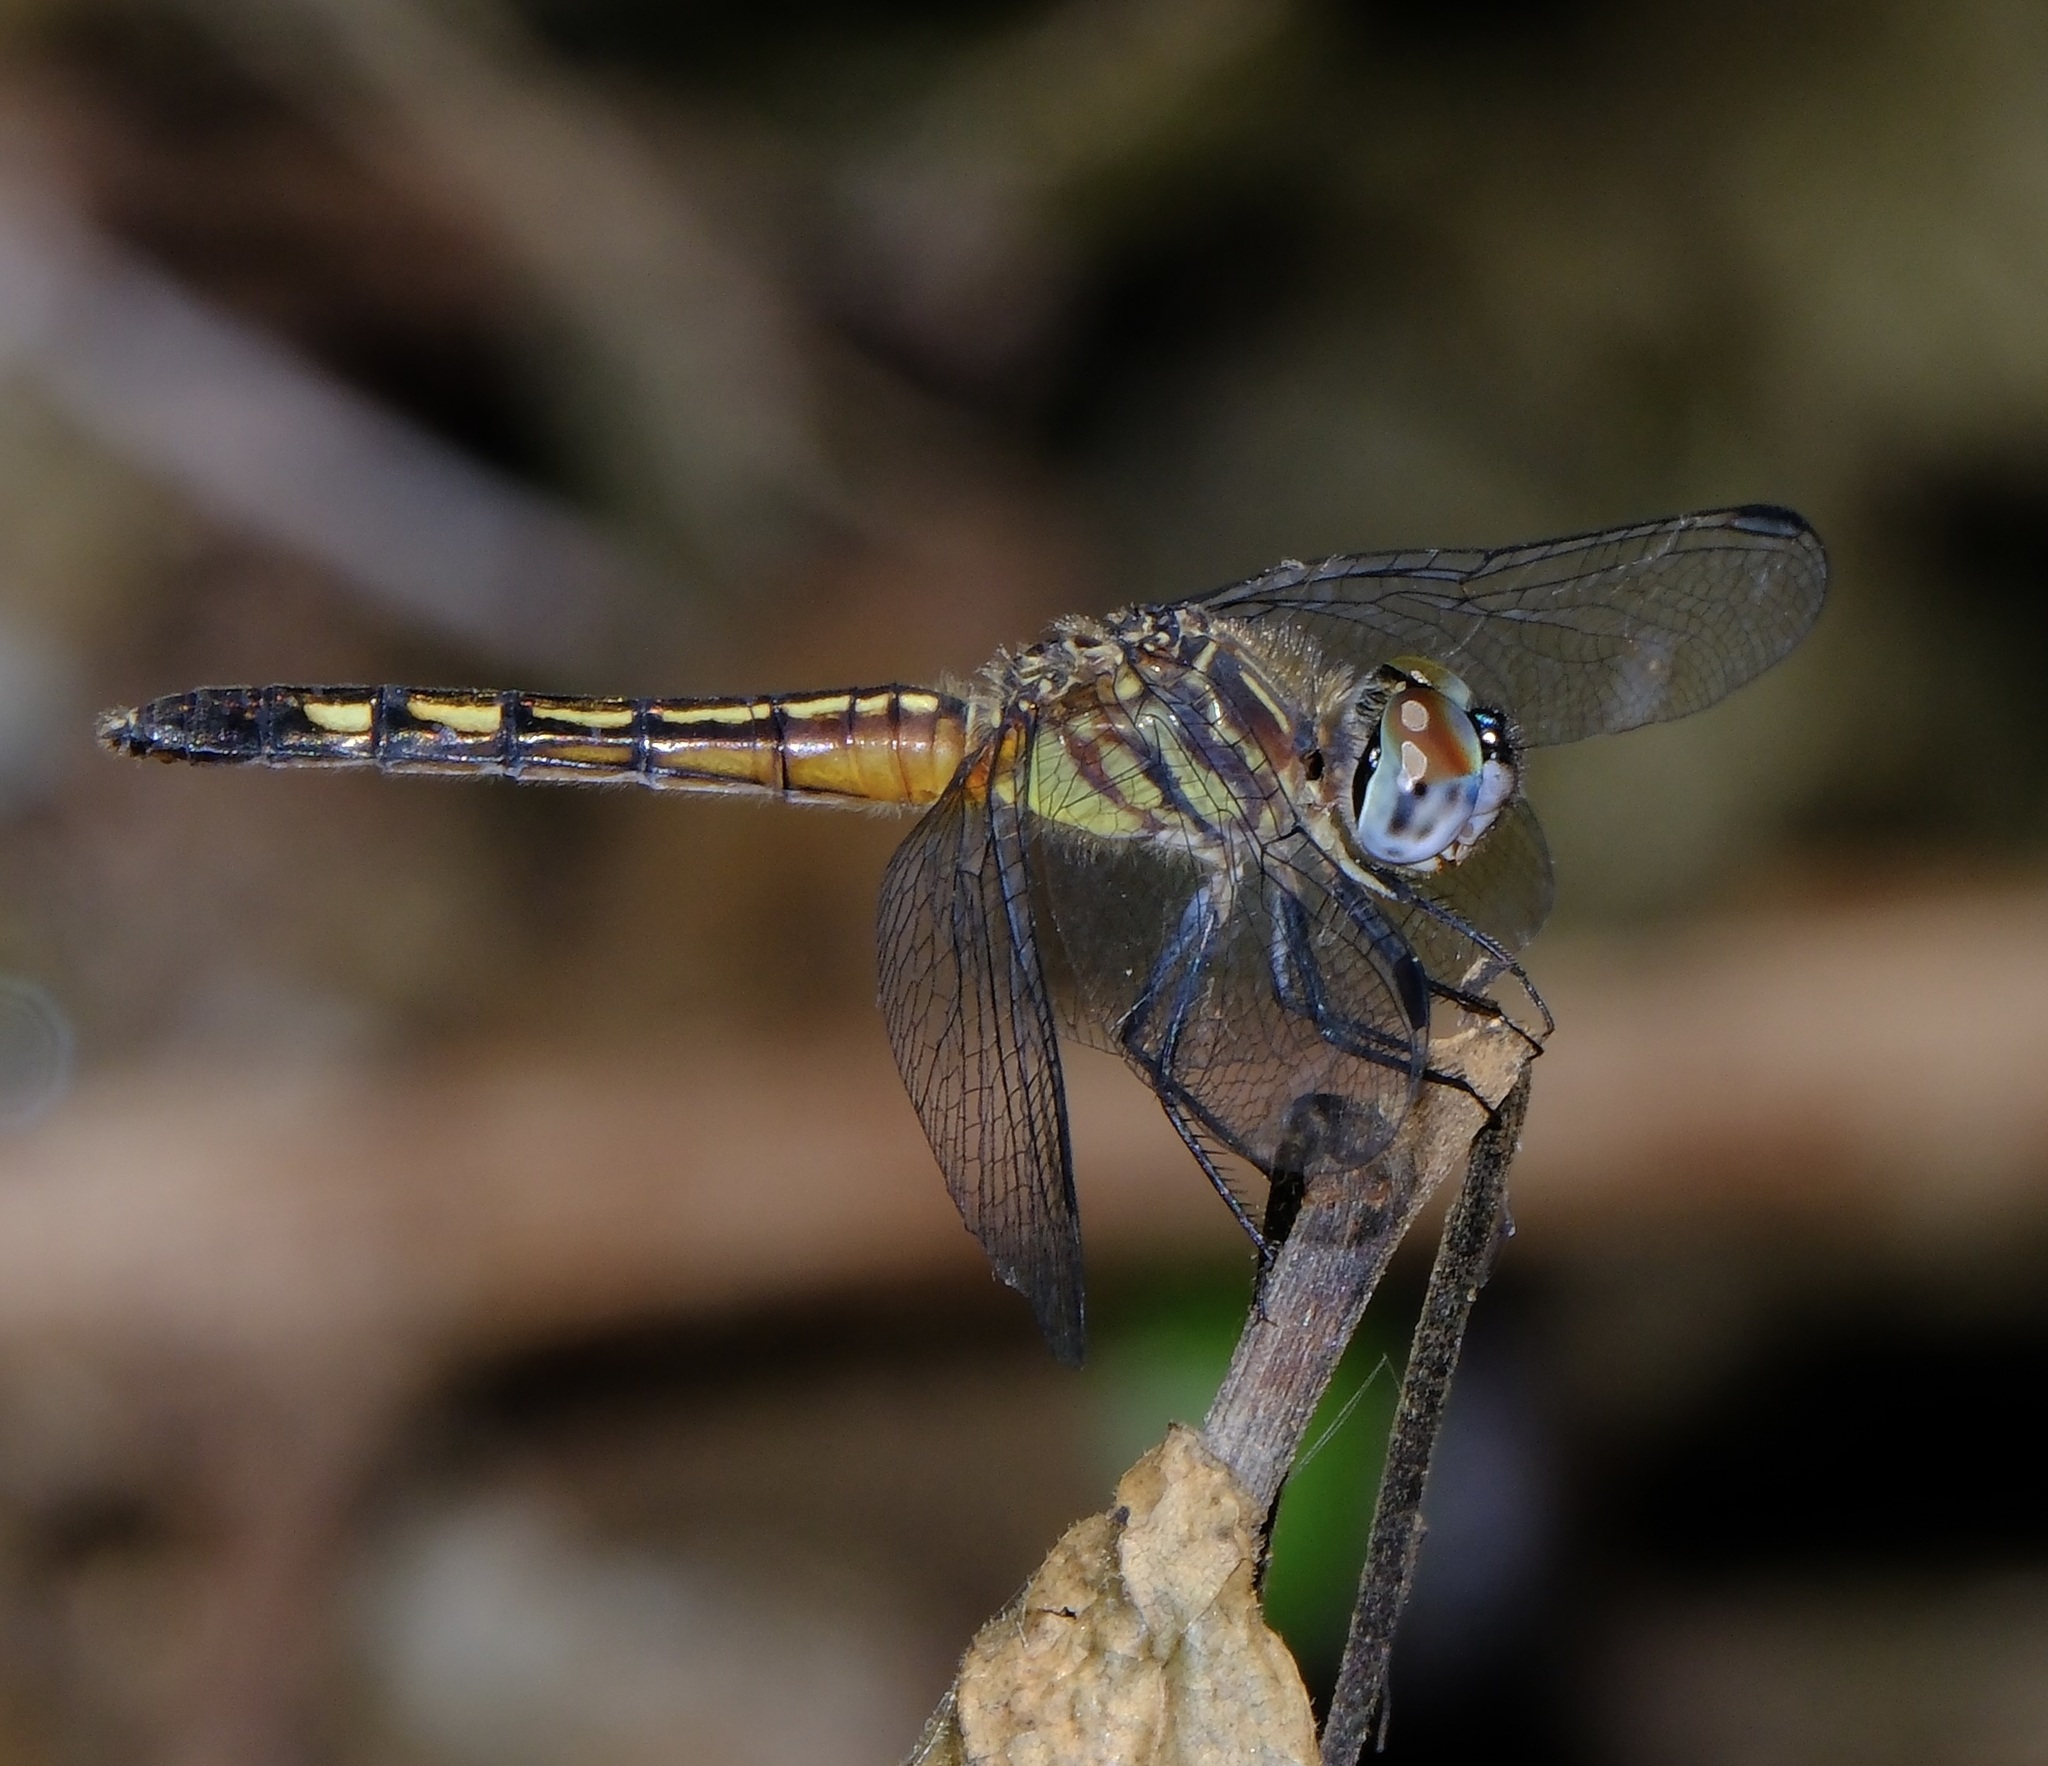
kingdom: Animalia
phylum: Arthropoda
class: Insecta
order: Odonata
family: Libellulidae
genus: Pachydiplax
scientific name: Pachydiplax longipennis
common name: Blue dasher
